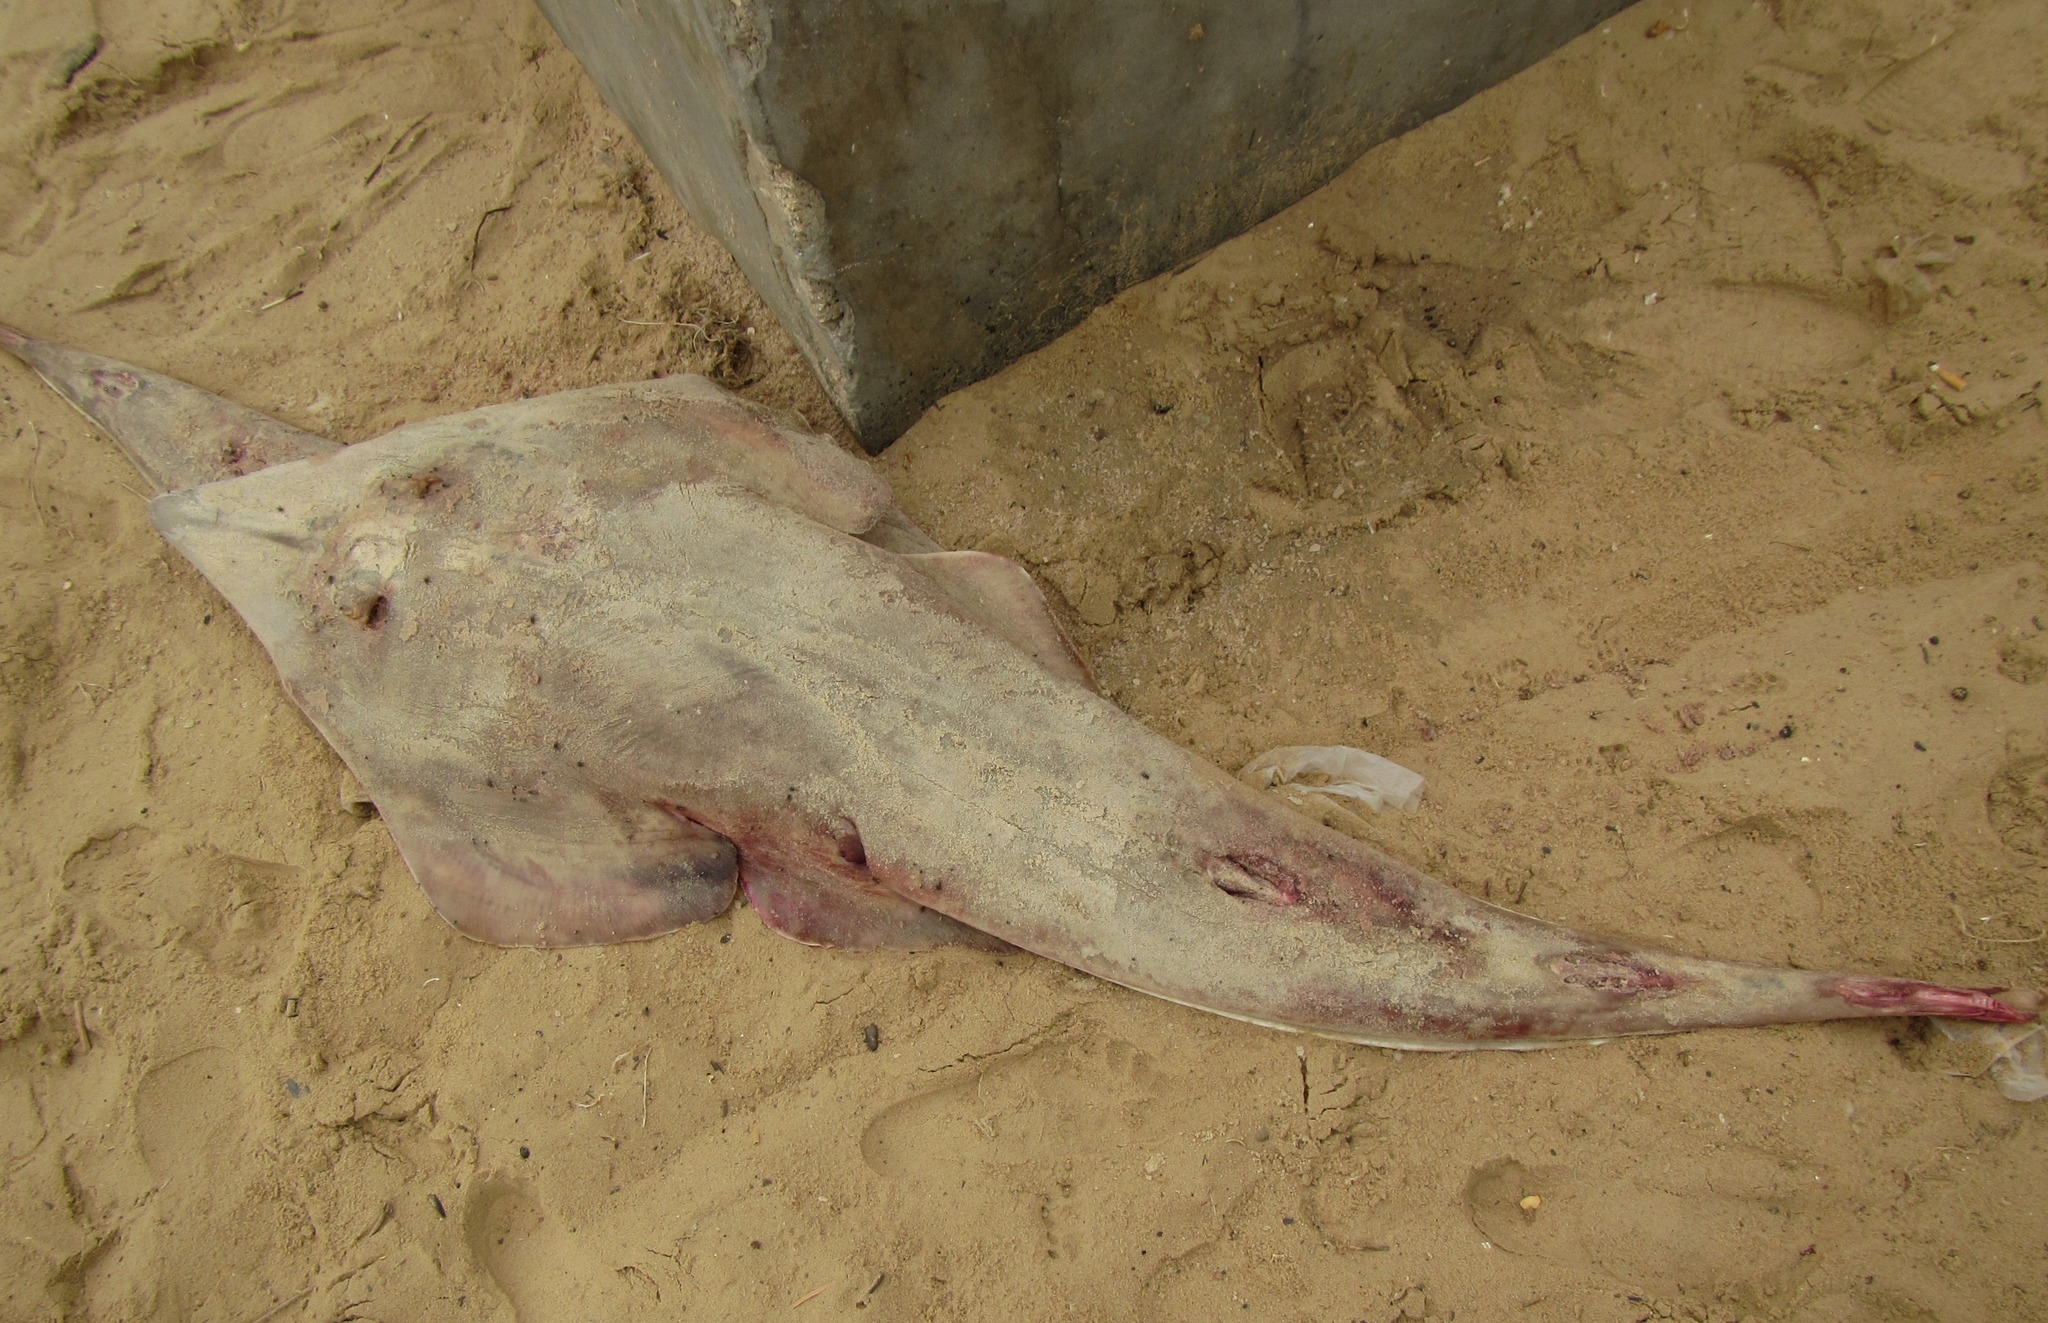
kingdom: Animalia
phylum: Chordata
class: Elasmobranchii
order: Rhinopristiformes
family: Glaucostegidae
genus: Glaucostegus
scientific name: Glaucostegus cemiculus
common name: Blackchin guitarfish
